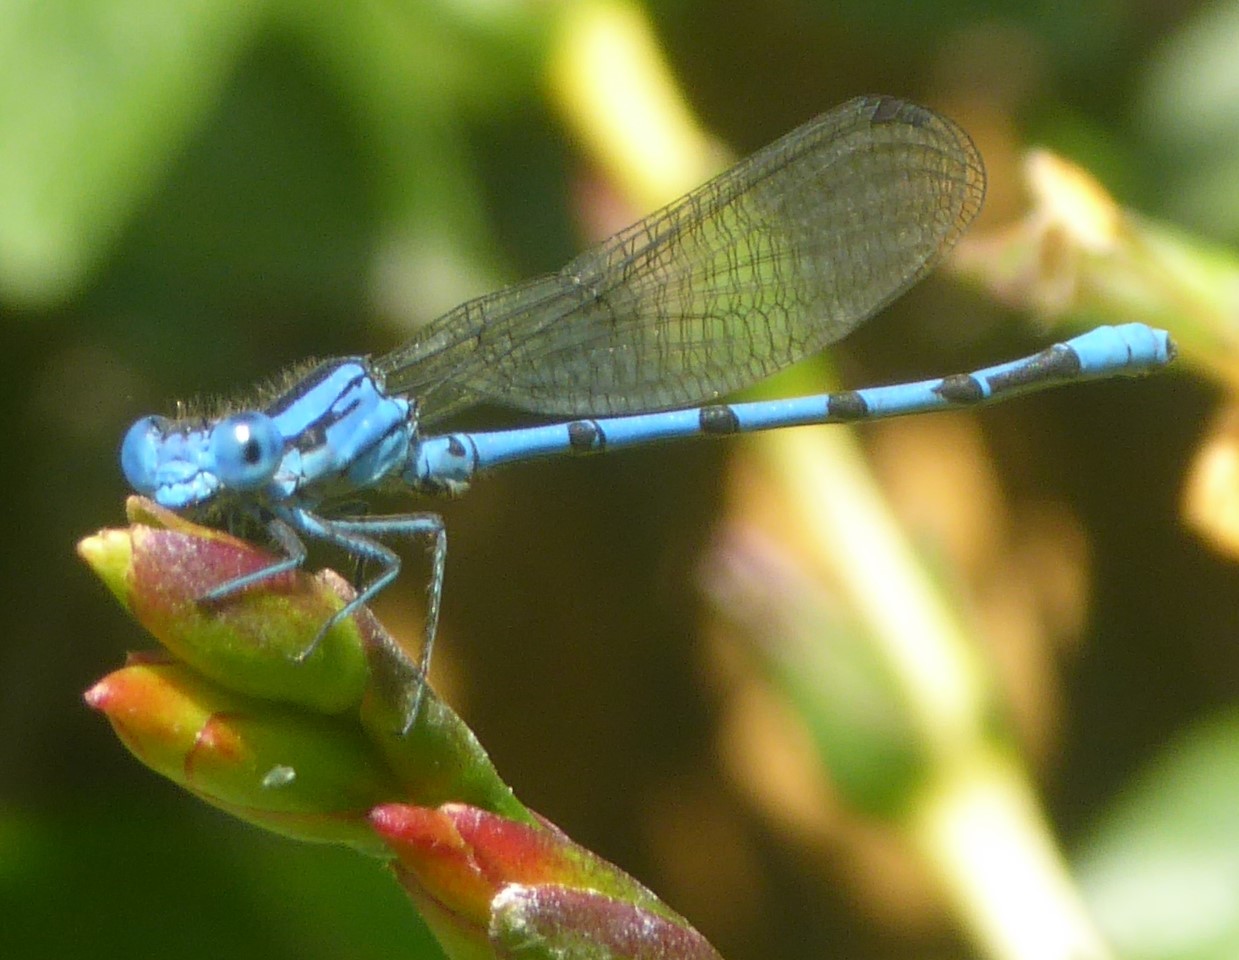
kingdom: Animalia
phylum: Arthropoda
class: Insecta
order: Odonata
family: Coenagrionidae
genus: Argia
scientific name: Argia nahuana
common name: Aztec dancer
